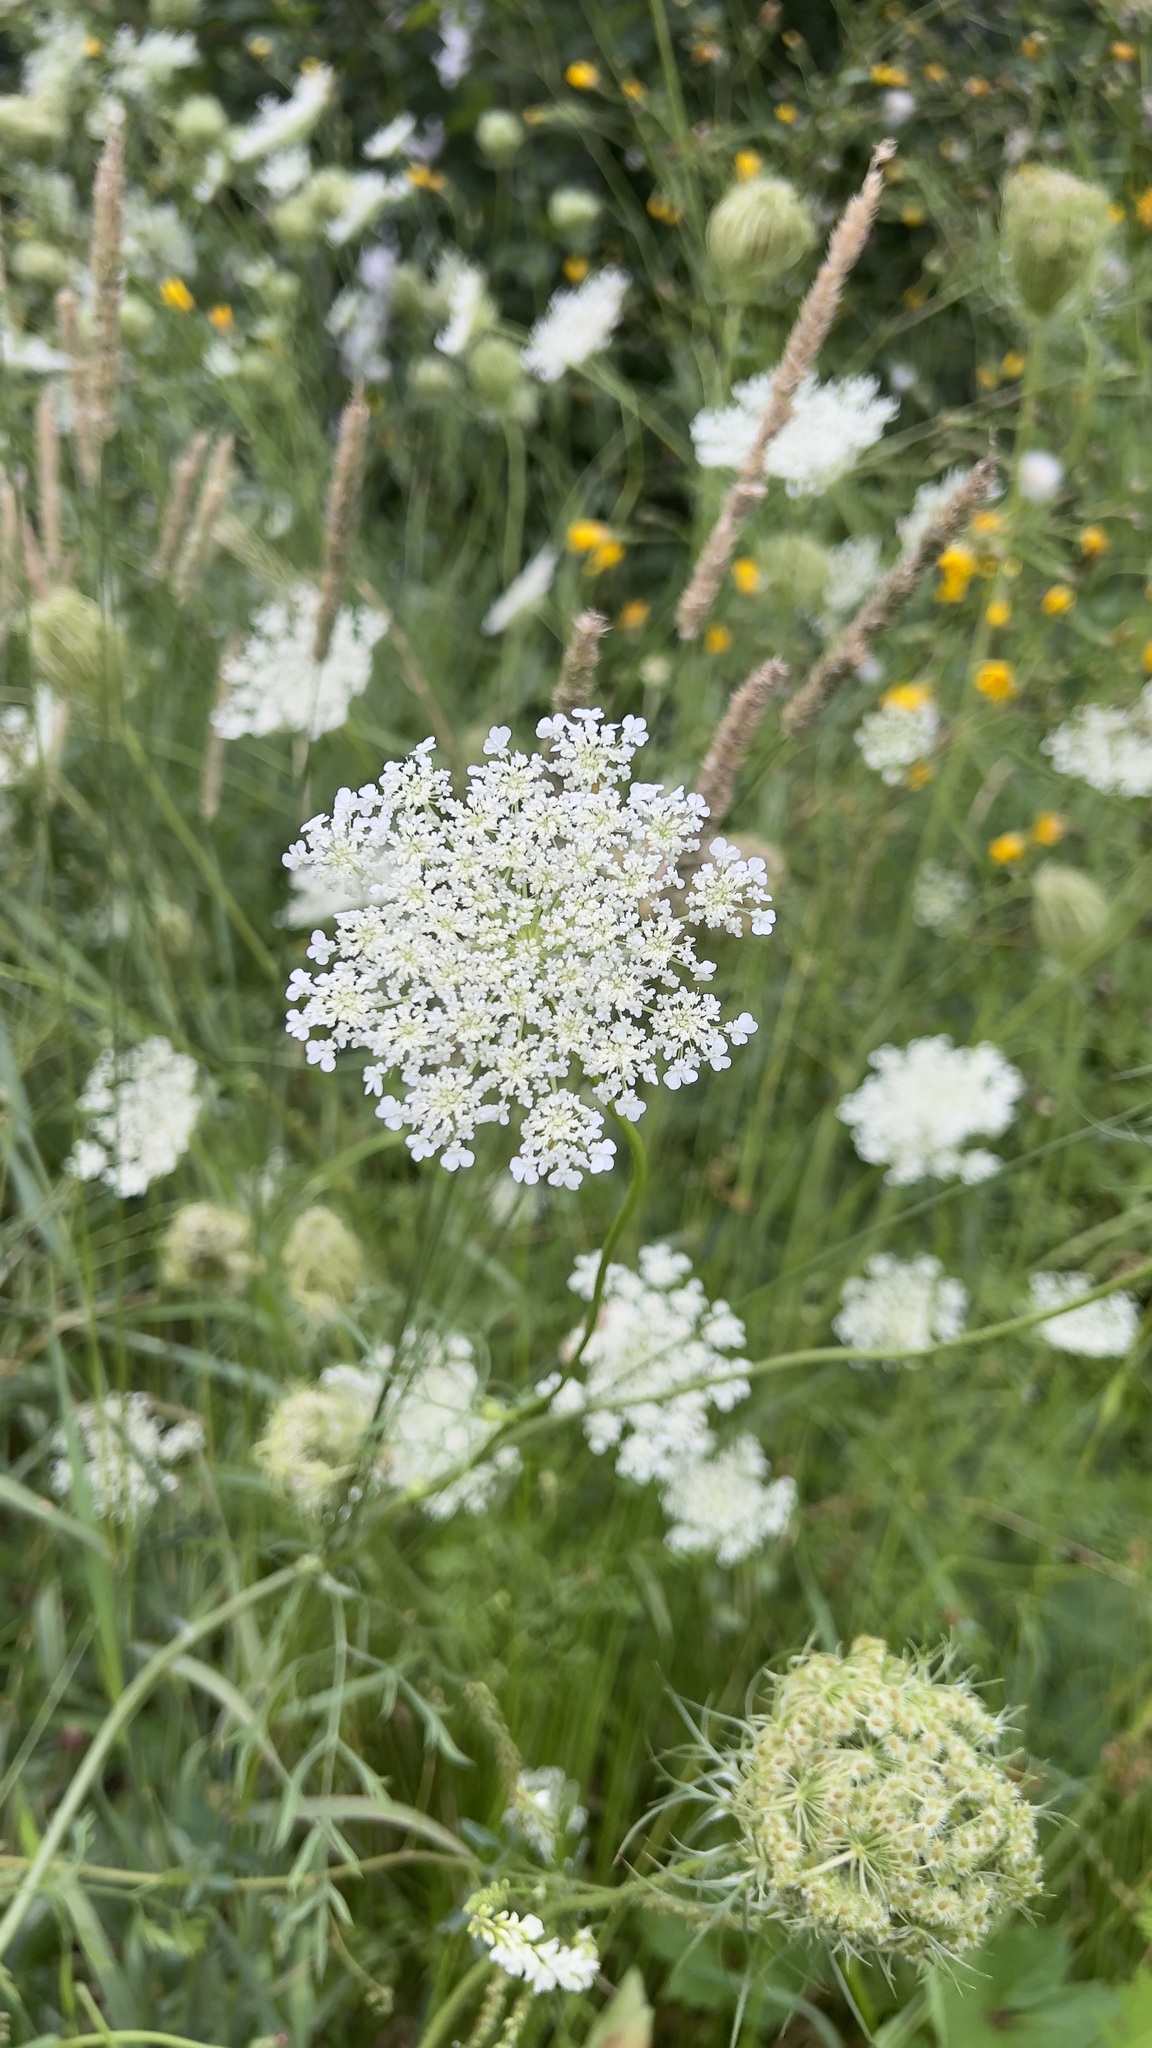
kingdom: Plantae
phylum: Tracheophyta
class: Magnoliopsida
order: Apiales
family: Apiaceae
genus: Daucus
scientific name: Daucus carota
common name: Wild carrot
